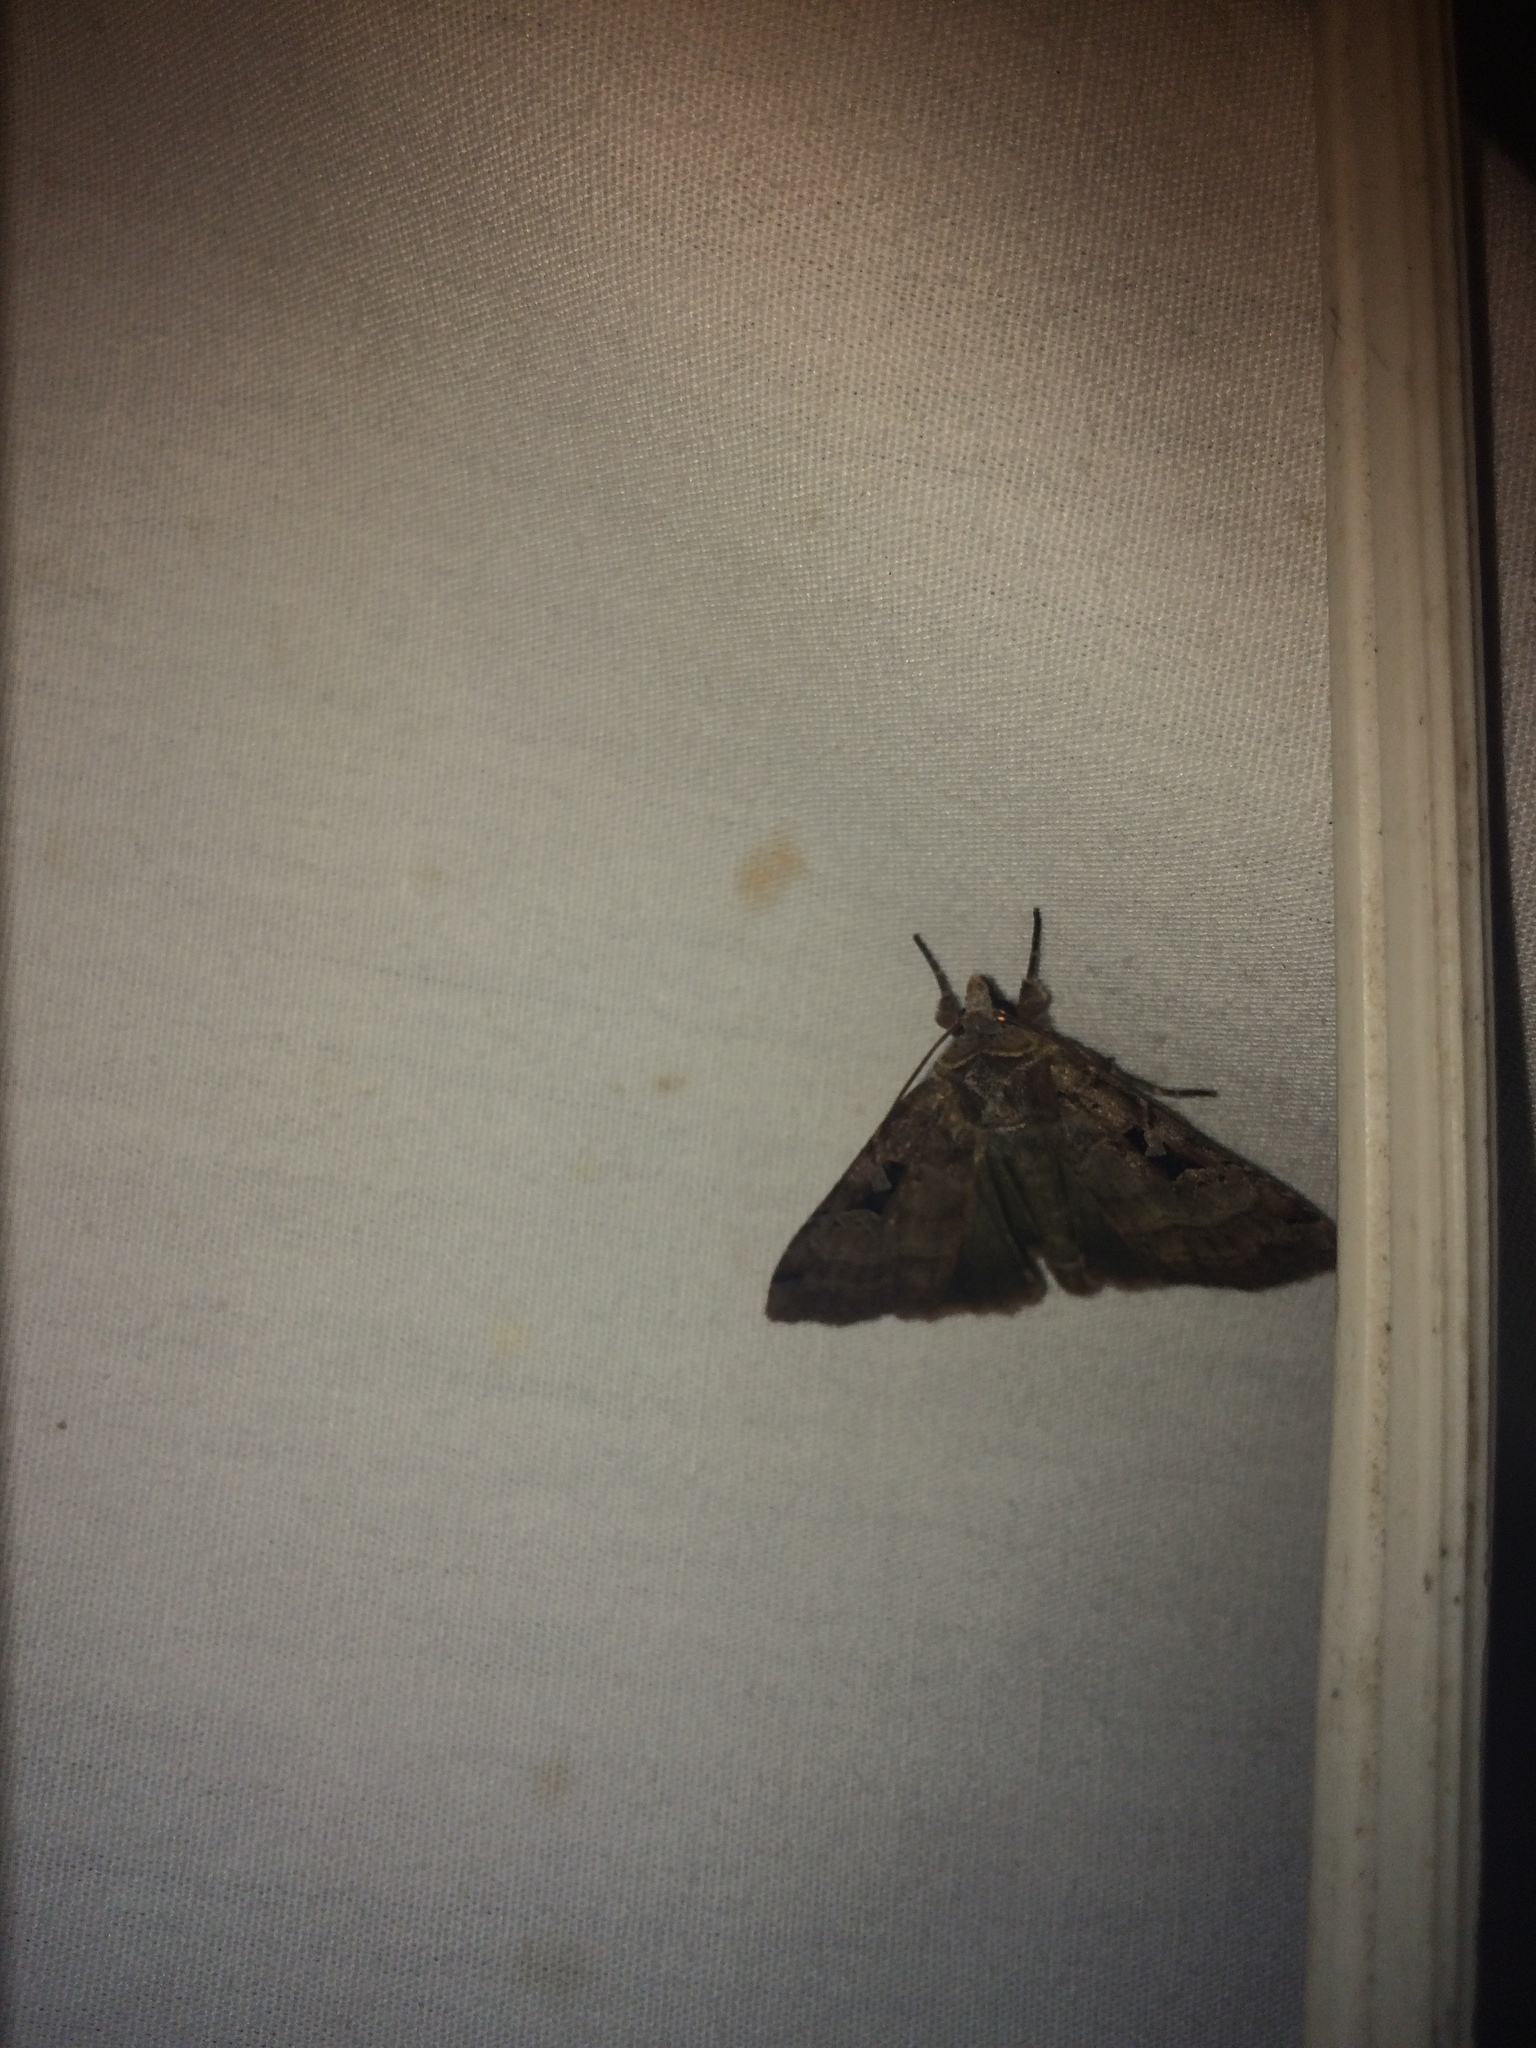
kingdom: Animalia
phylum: Arthropoda
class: Insecta
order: Lepidoptera
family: Noctuidae
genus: Xestia
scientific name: Xestia normaniana
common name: Norman's dart moth
